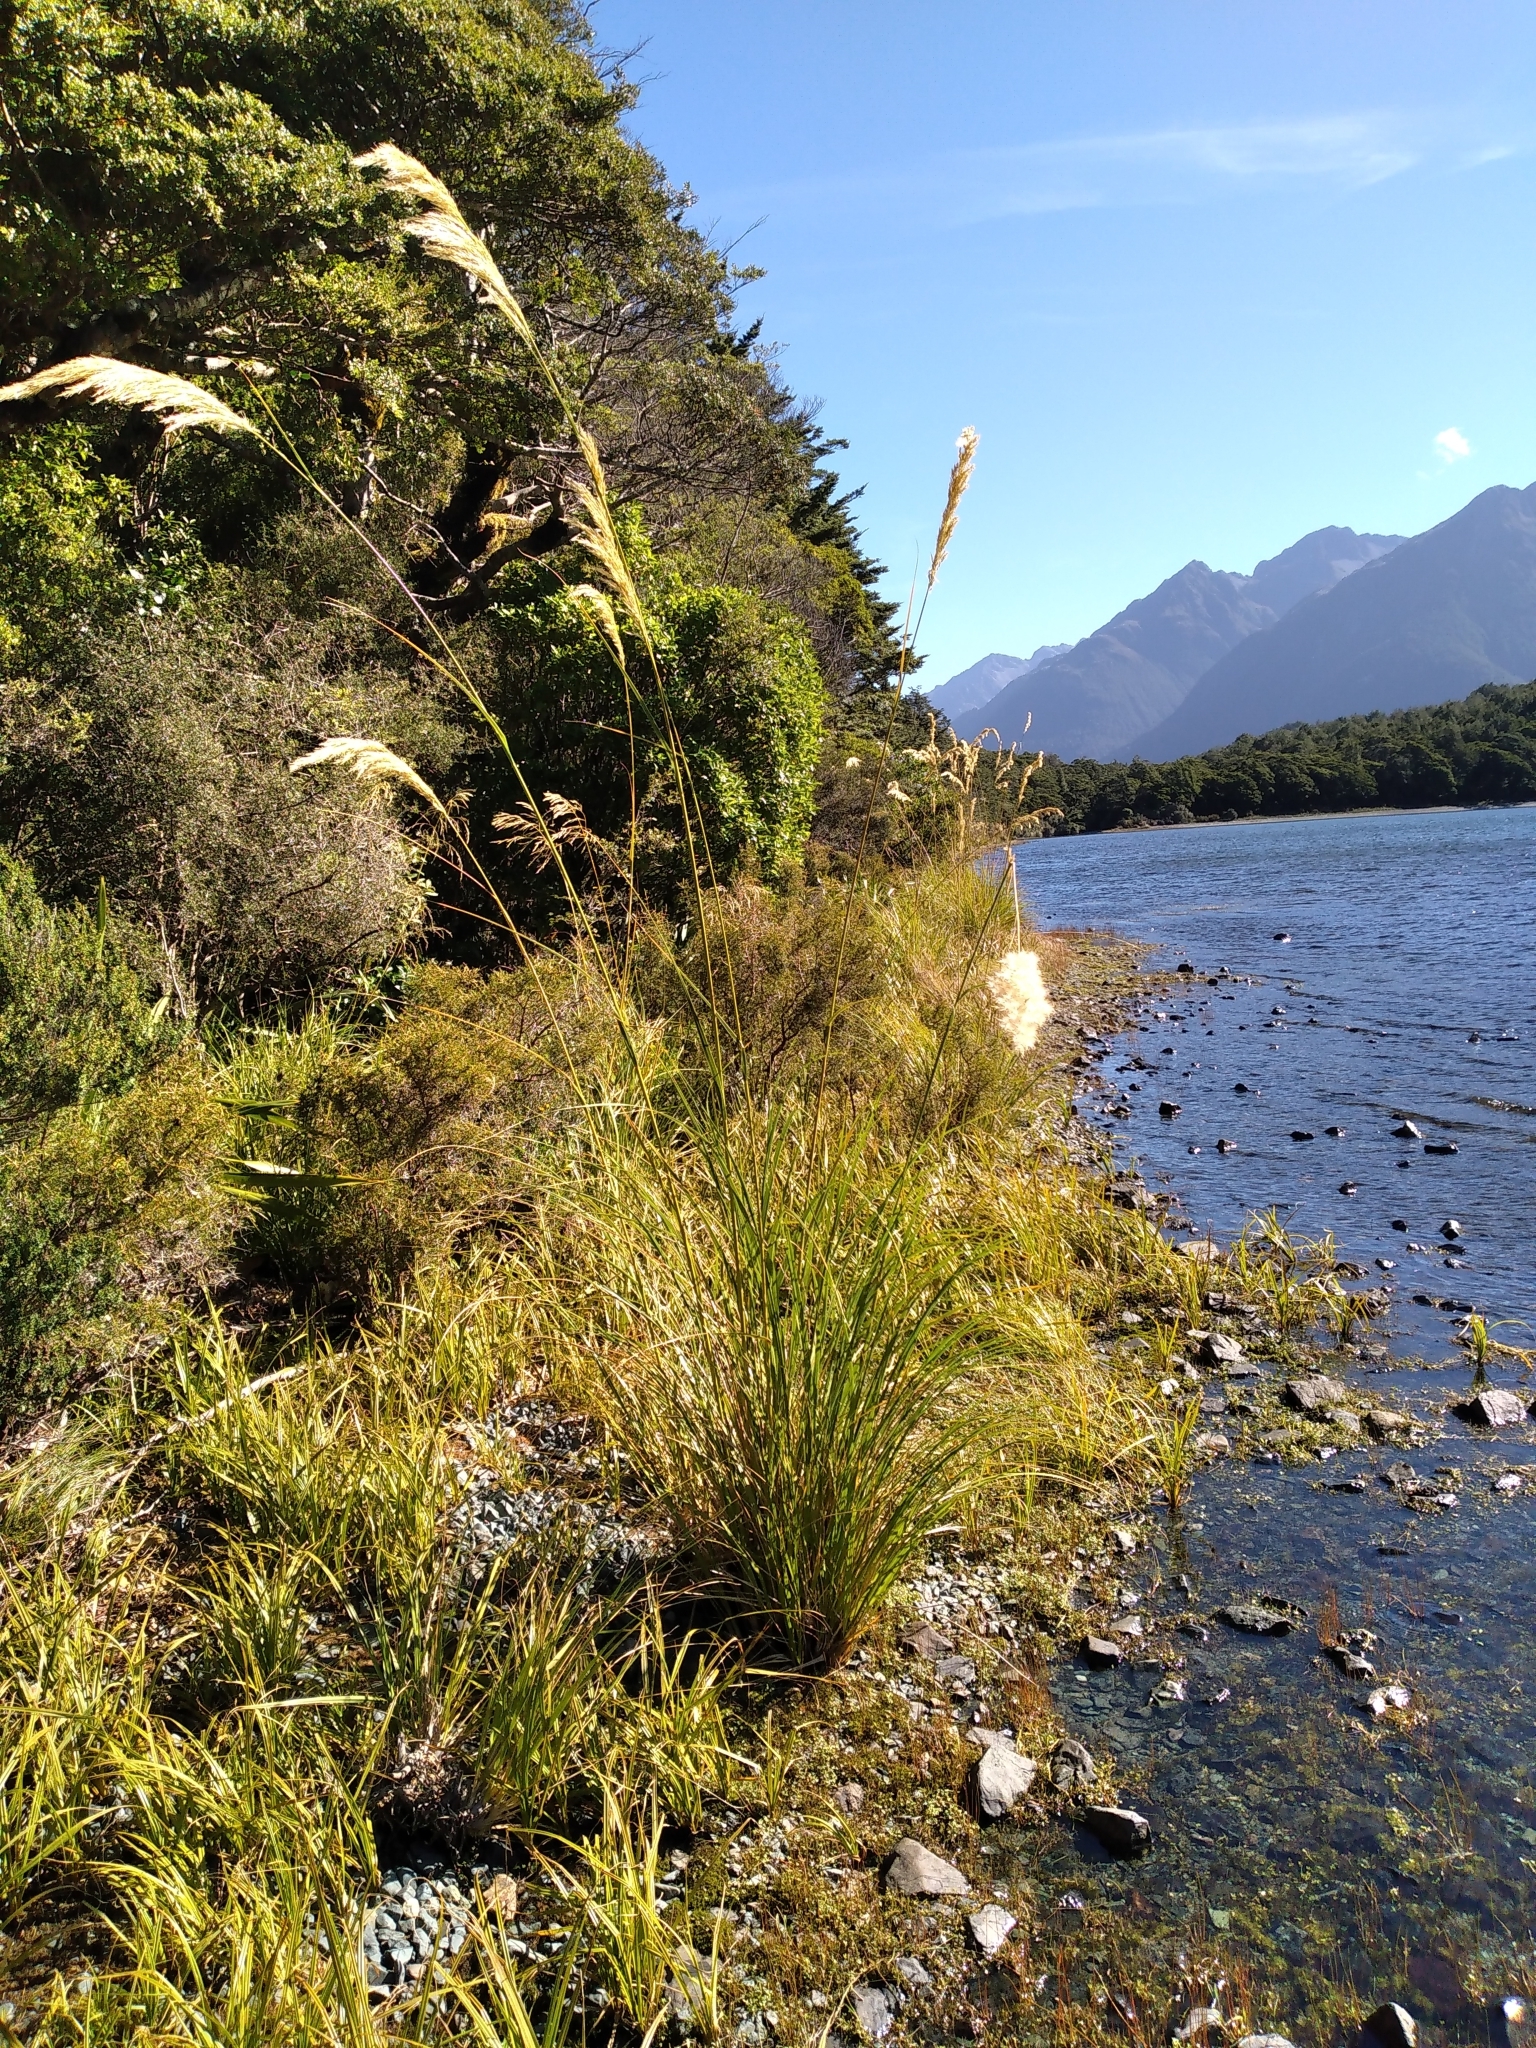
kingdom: Plantae
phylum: Tracheophyta
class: Liliopsida
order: Poales
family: Poaceae
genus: Austroderia
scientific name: Austroderia richardii
